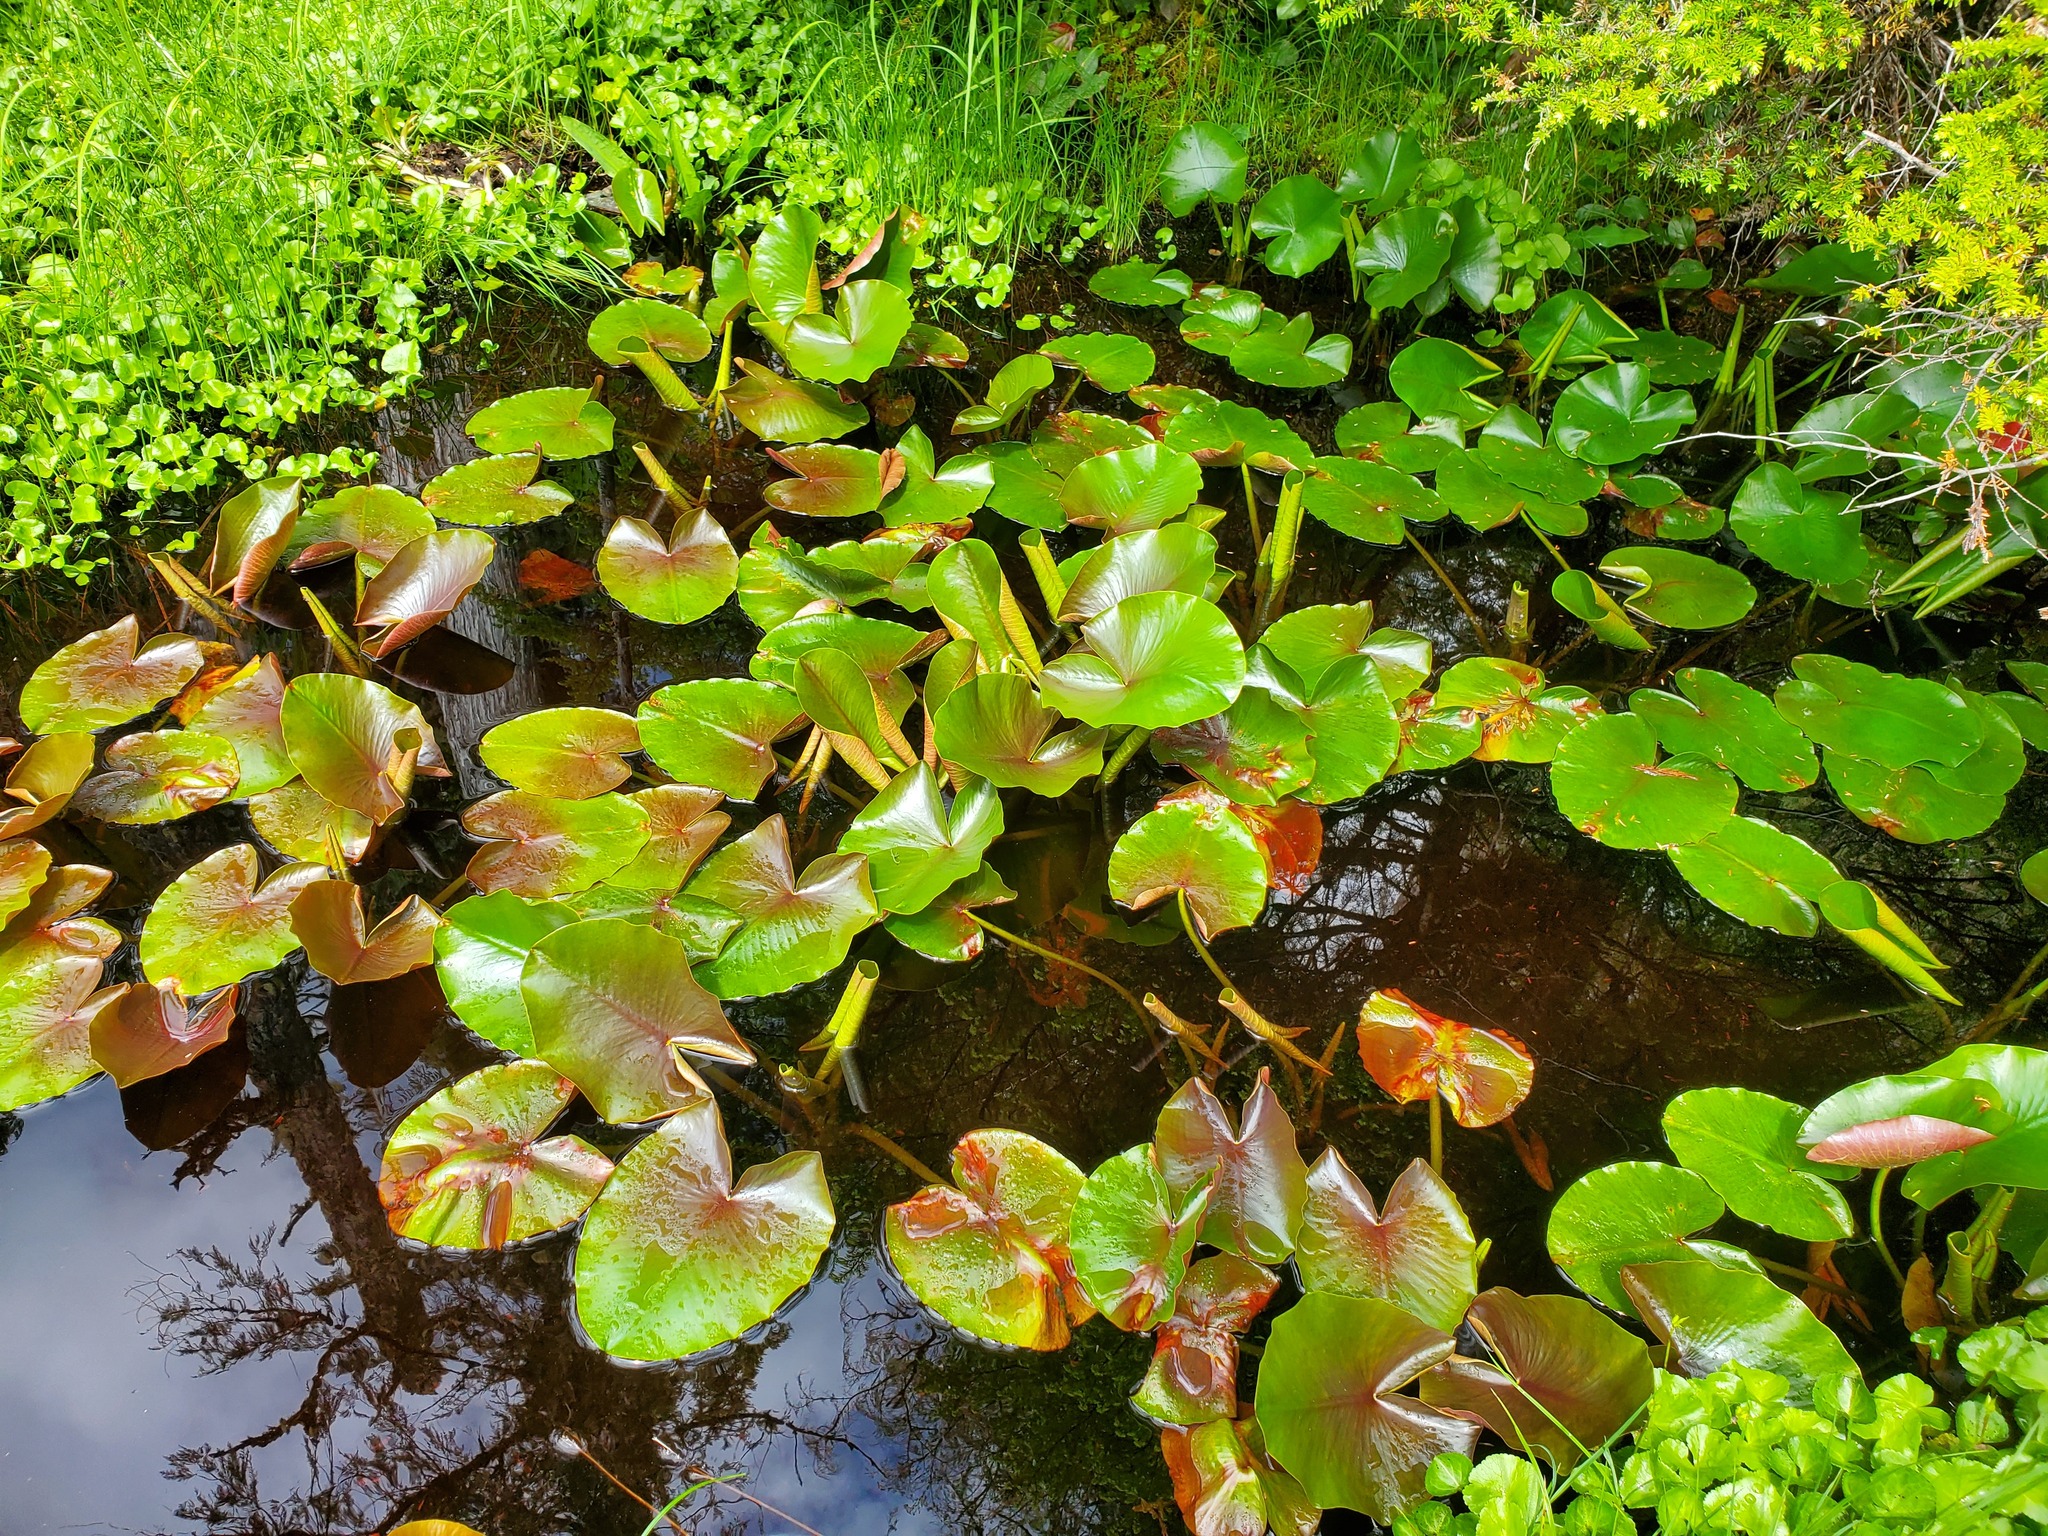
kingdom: Plantae
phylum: Tracheophyta
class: Magnoliopsida
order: Nymphaeales
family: Nymphaeaceae
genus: Nuphar
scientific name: Nuphar polysepala
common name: Rocky mountain cow-lily
